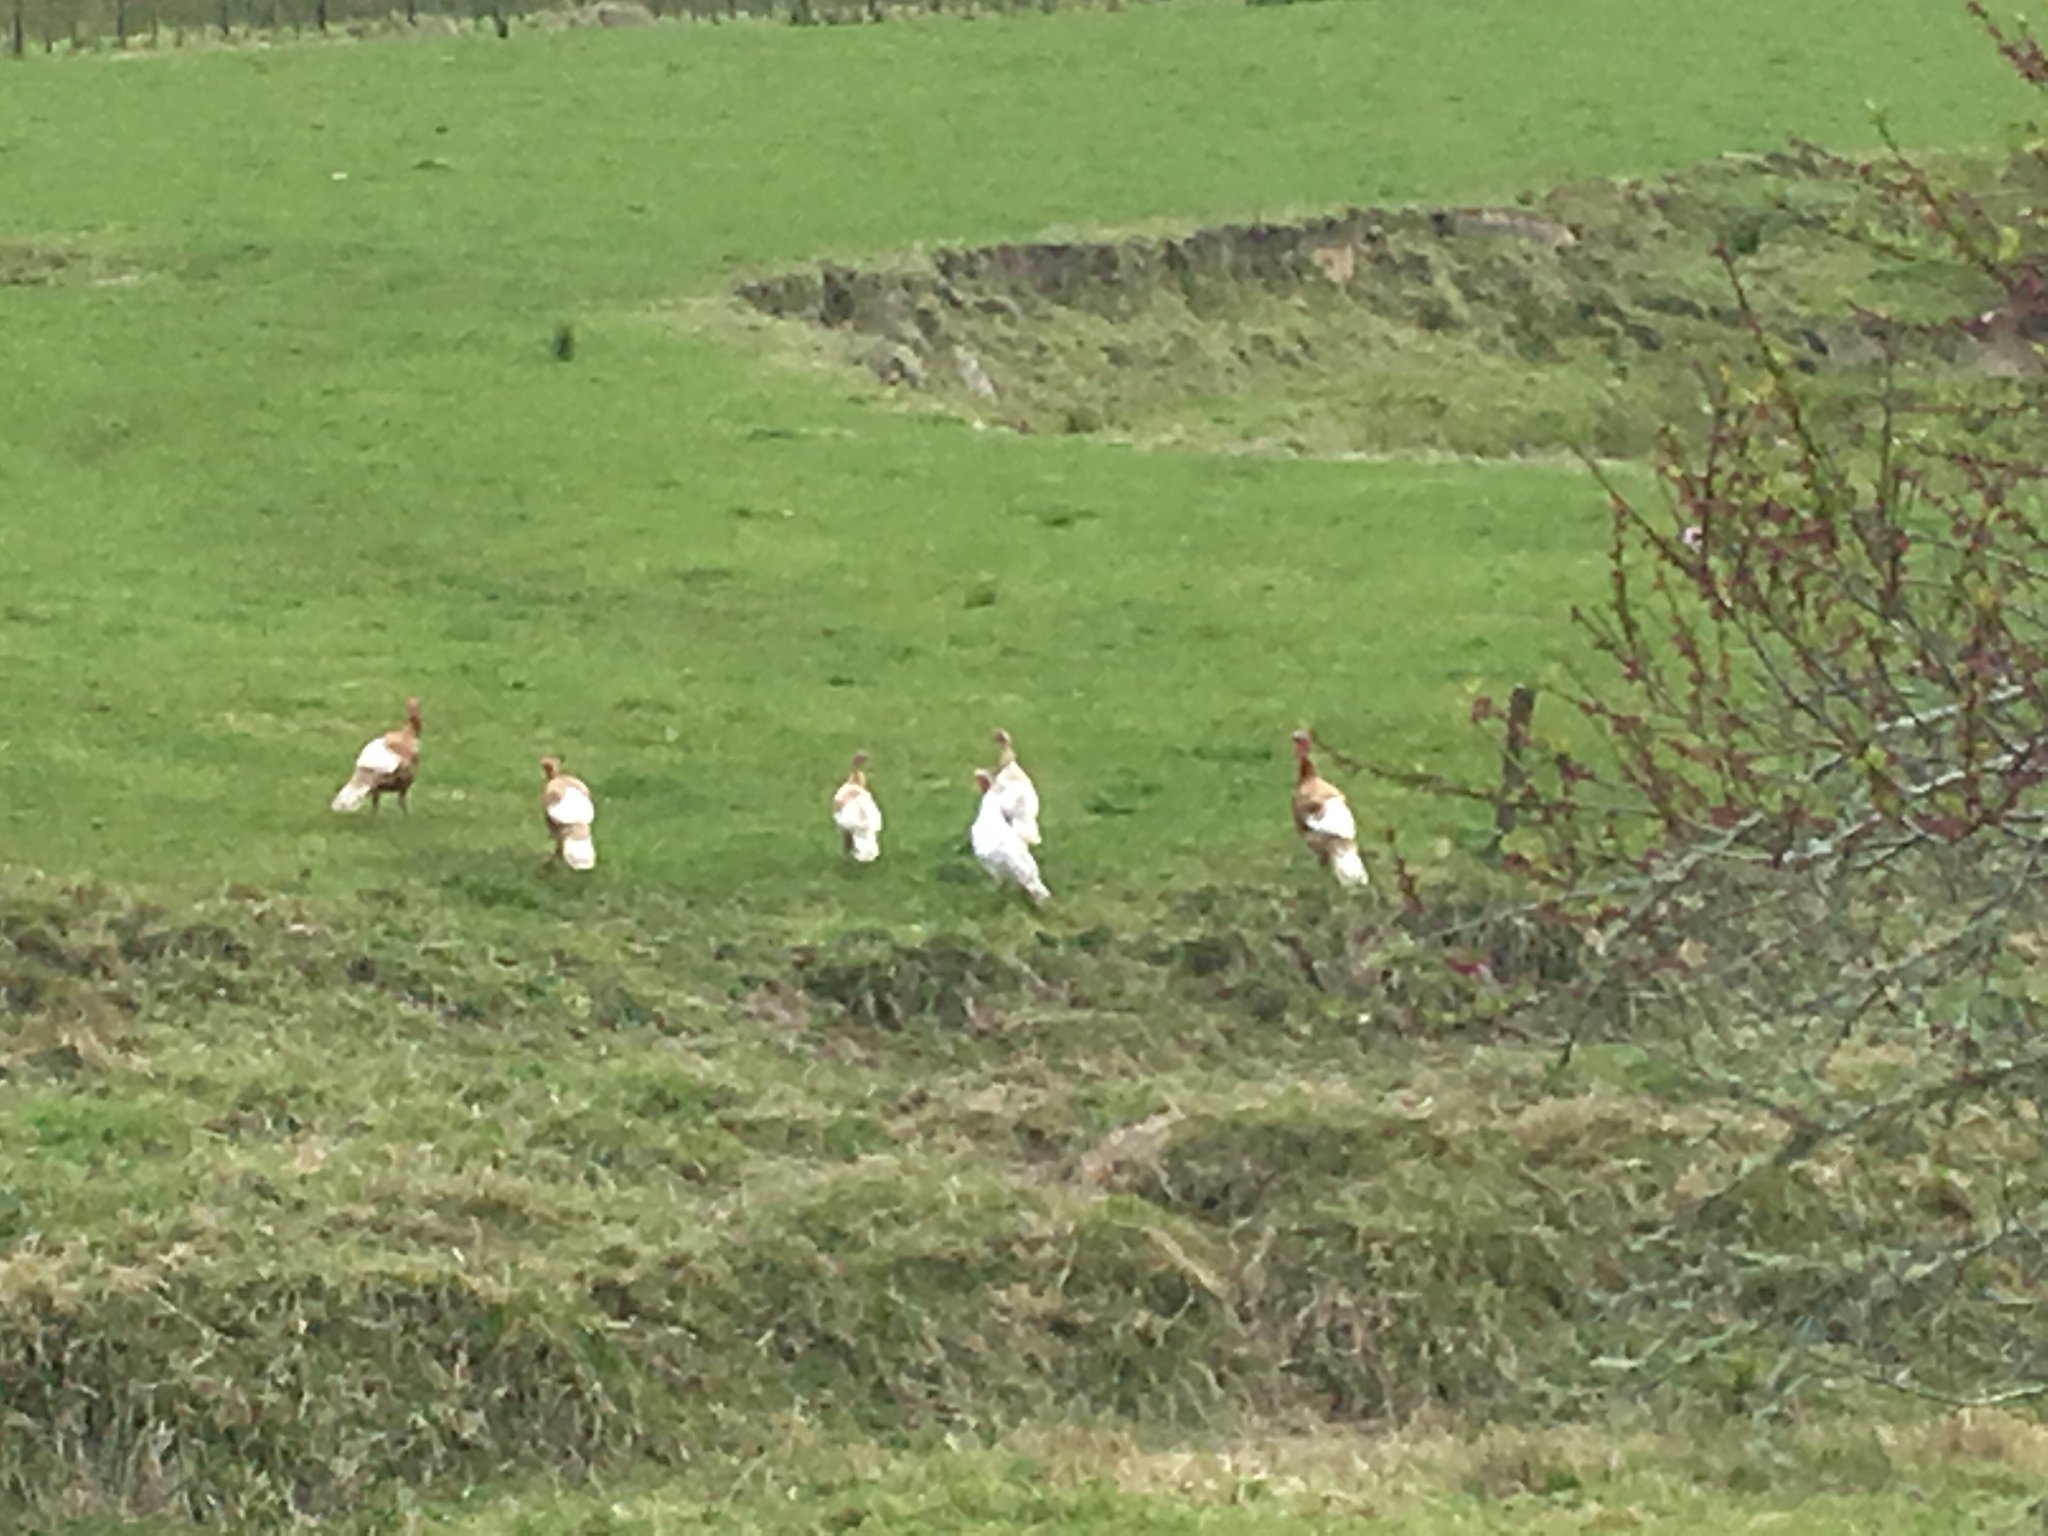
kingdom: Animalia
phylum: Chordata
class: Aves
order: Galliformes
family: Phasianidae
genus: Meleagris
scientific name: Meleagris gallopavo
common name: Wild turkey
